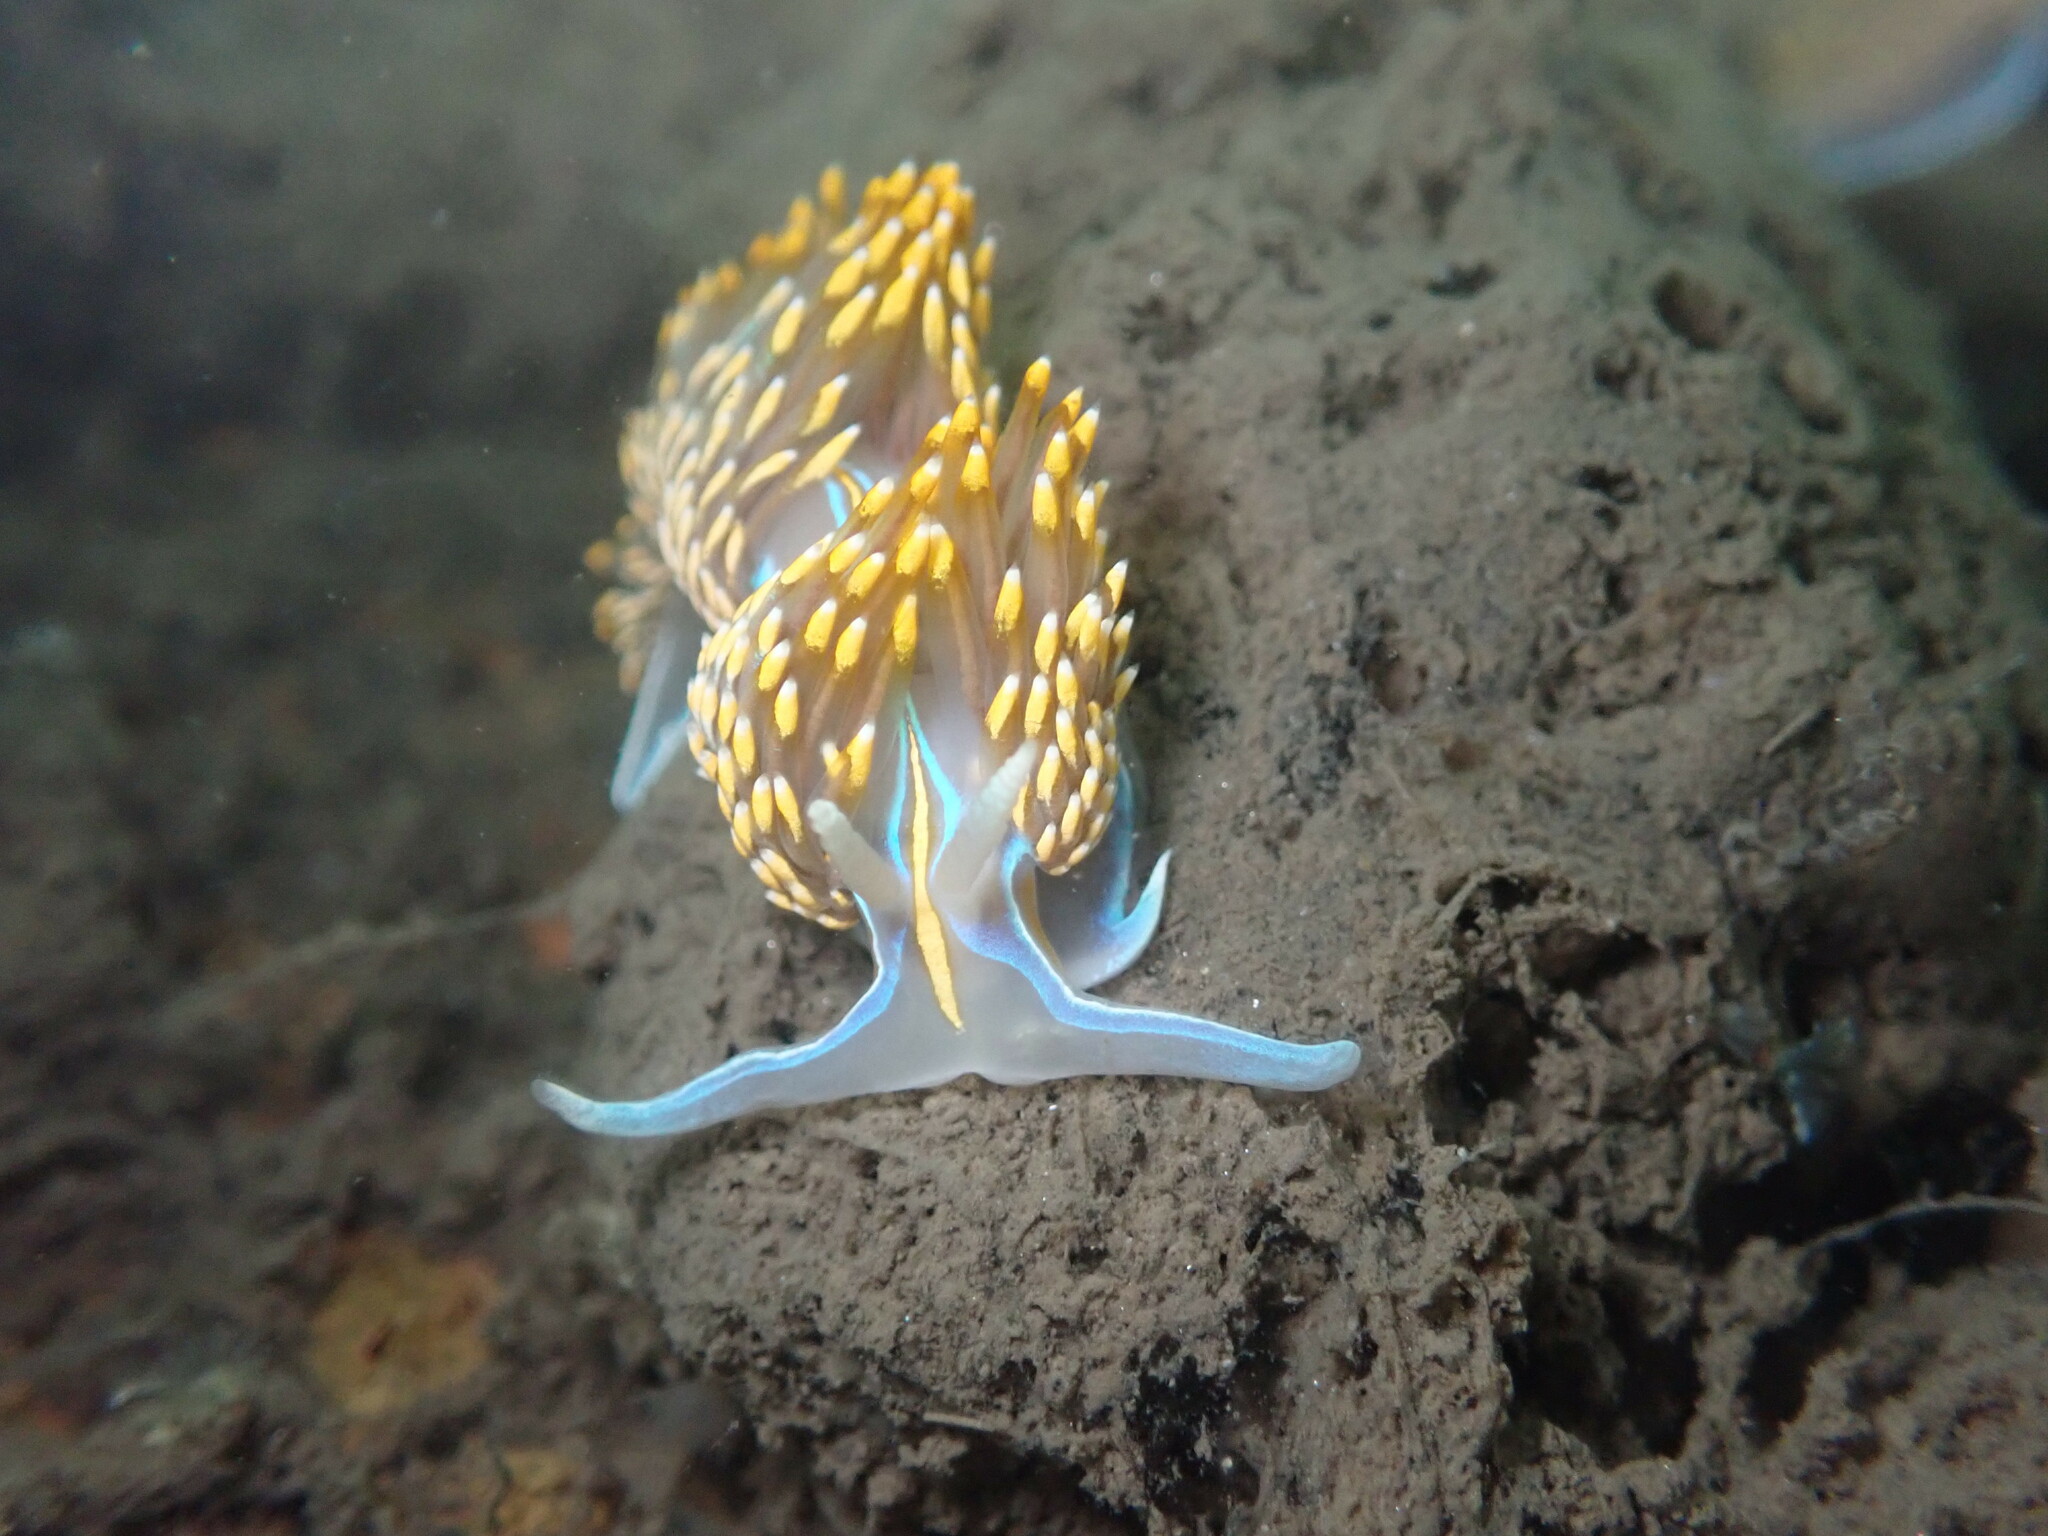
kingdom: Animalia
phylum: Mollusca
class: Gastropoda
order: Nudibranchia
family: Myrrhinidae
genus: Hermissenda
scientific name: Hermissenda opalescens
